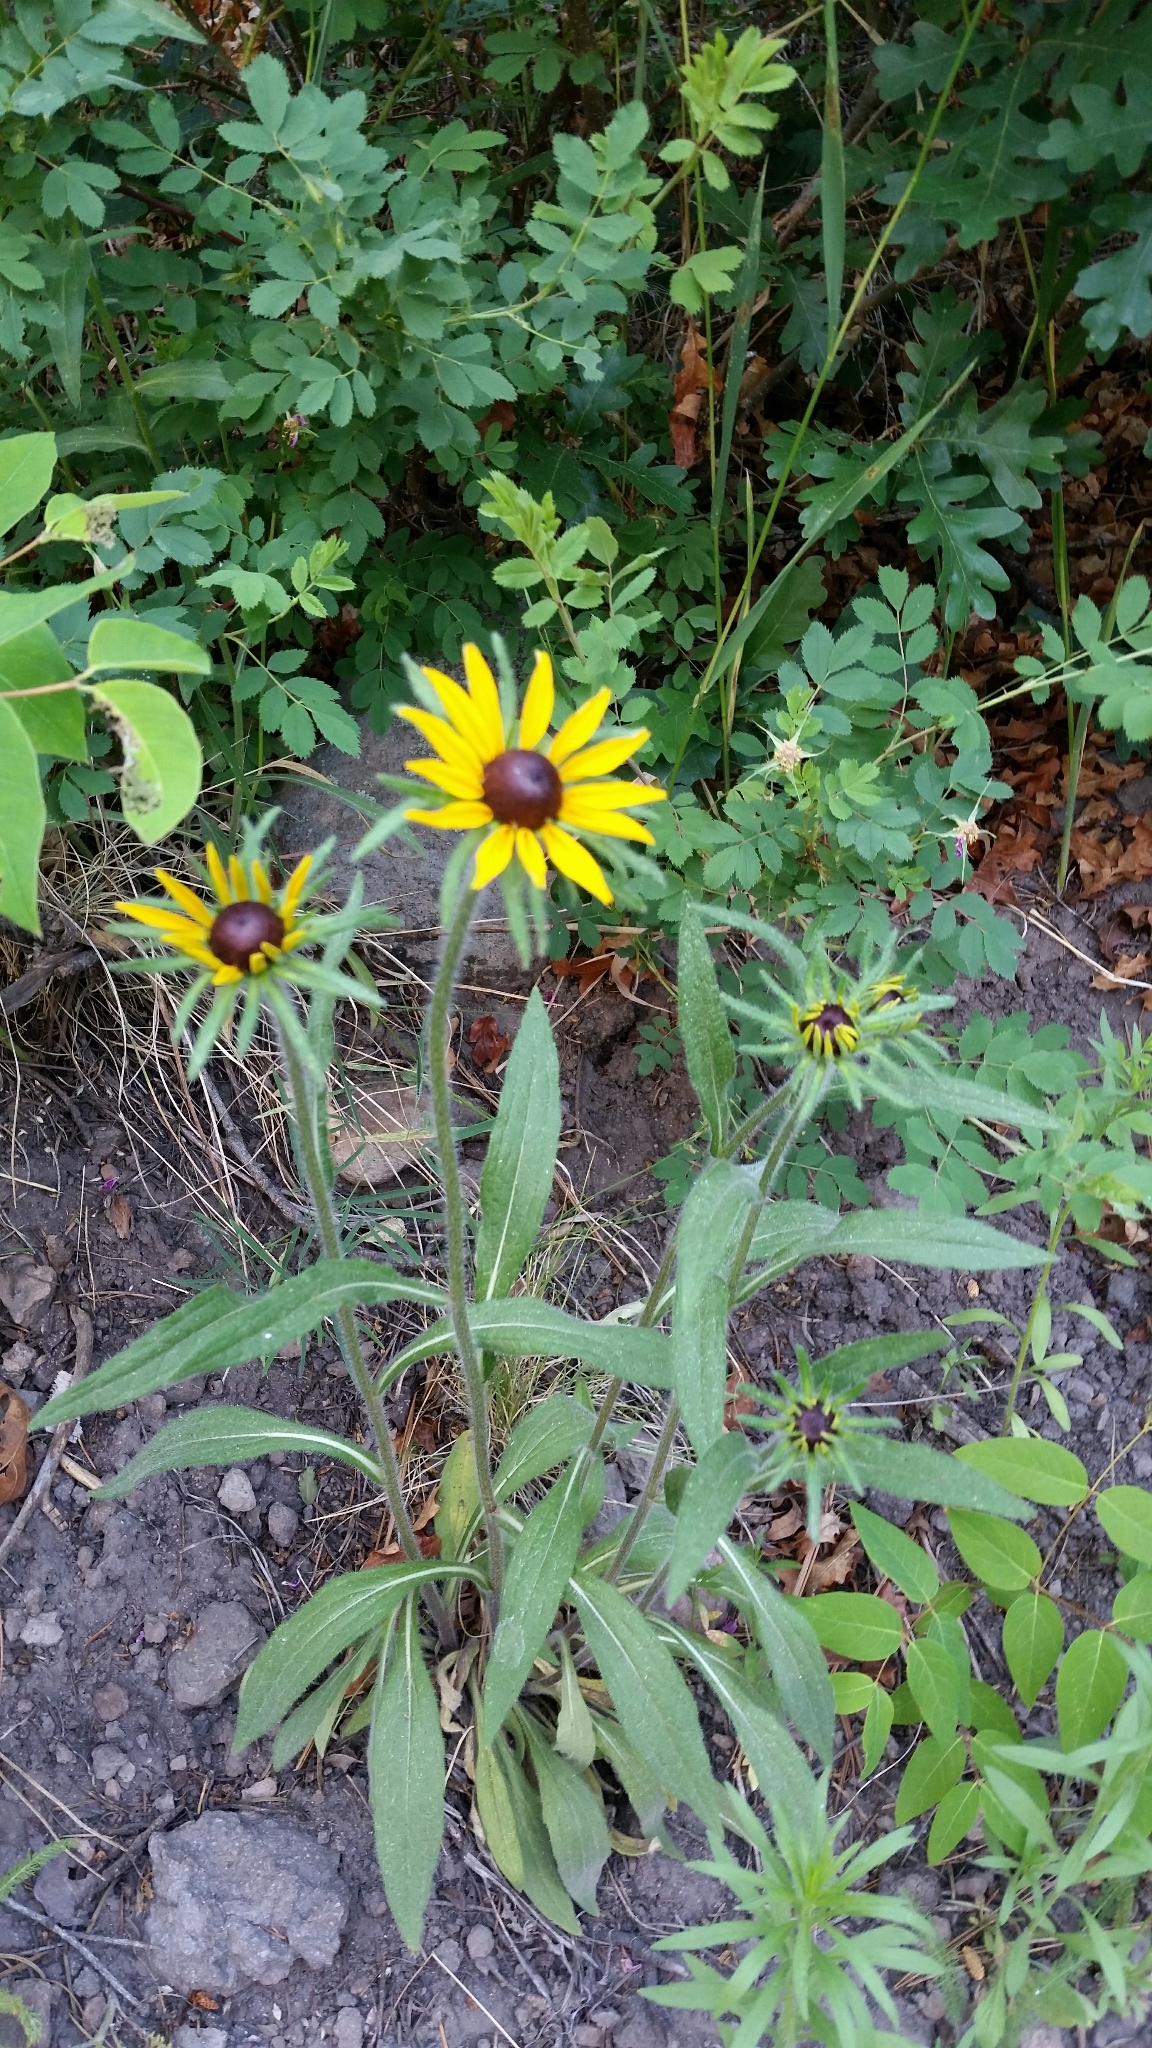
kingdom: Plantae
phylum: Tracheophyta
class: Magnoliopsida
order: Asterales
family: Asteraceae
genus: Rudbeckia
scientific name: Rudbeckia hirta
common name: Black-eyed-susan
